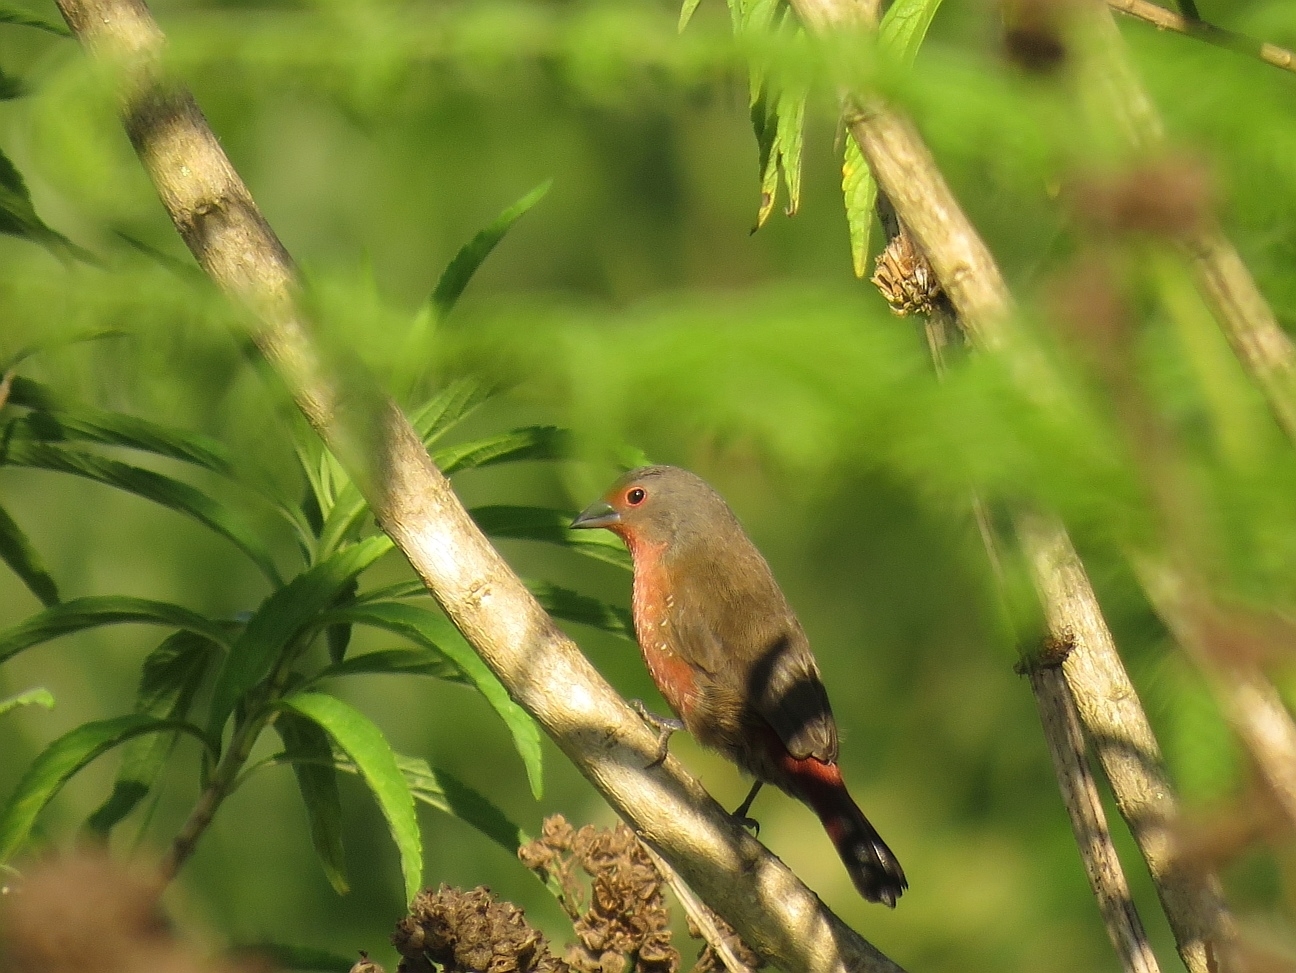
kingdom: Animalia
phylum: Chordata
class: Aves
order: Passeriformes
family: Estrildidae
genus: Lagonosticta
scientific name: Lagonosticta rubricata
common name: African firefinch
